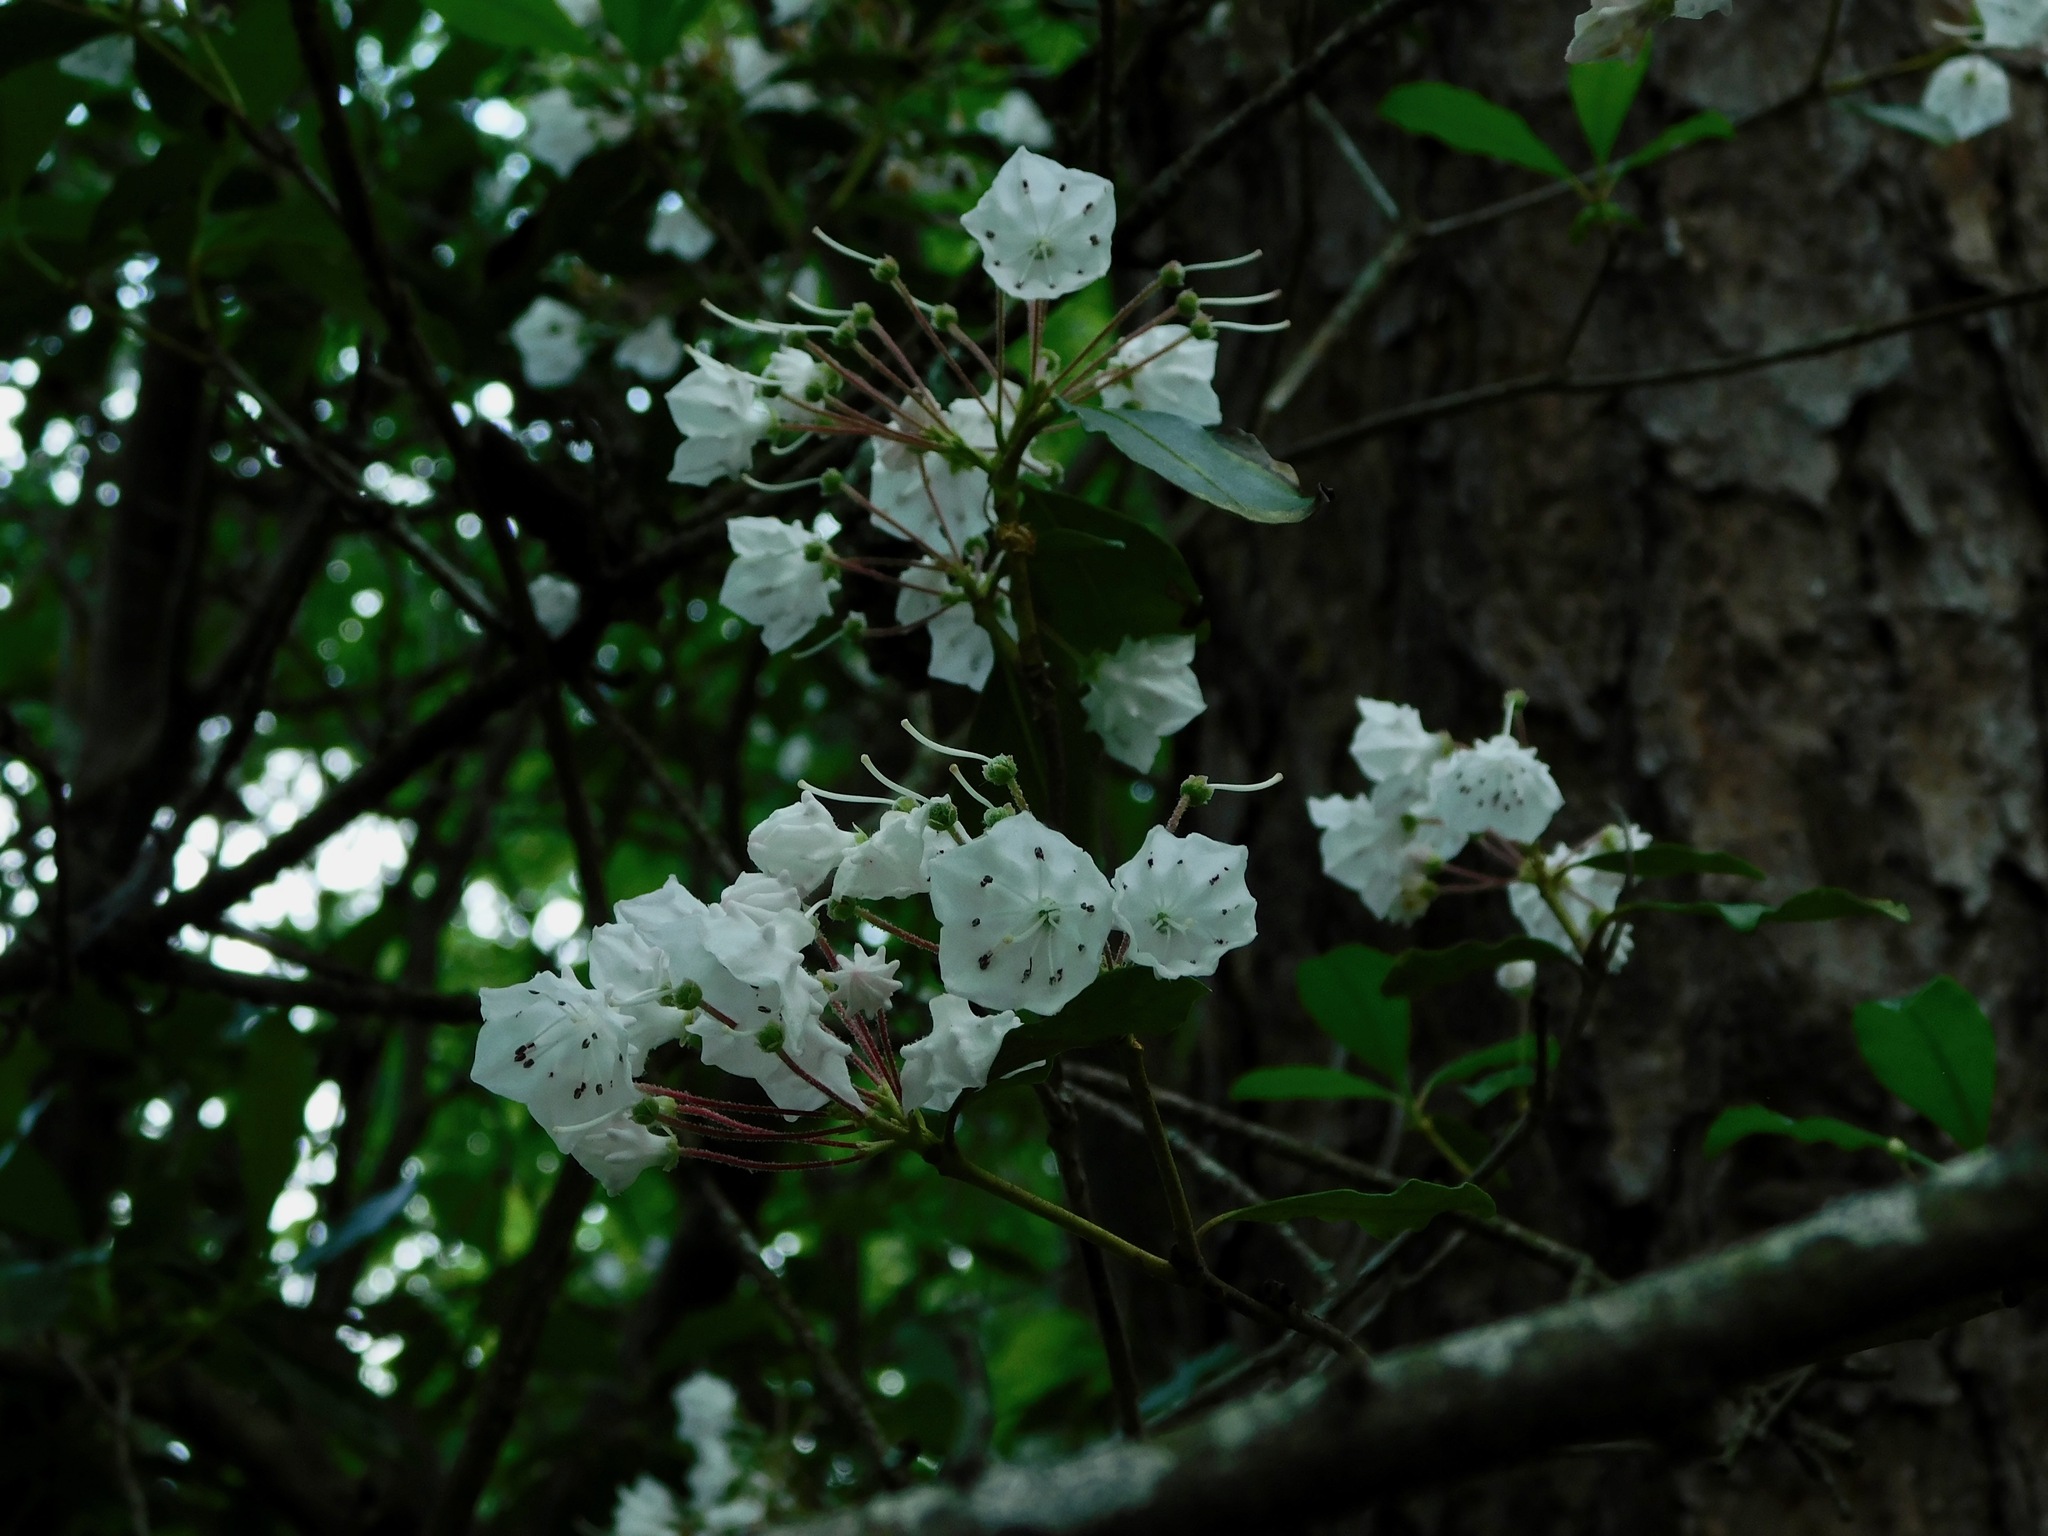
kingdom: Plantae
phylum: Tracheophyta
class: Magnoliopsida
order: Ericales
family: Ericaceae
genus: Kalmia
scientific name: Kalmia latifolia
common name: Mountain-laurel
